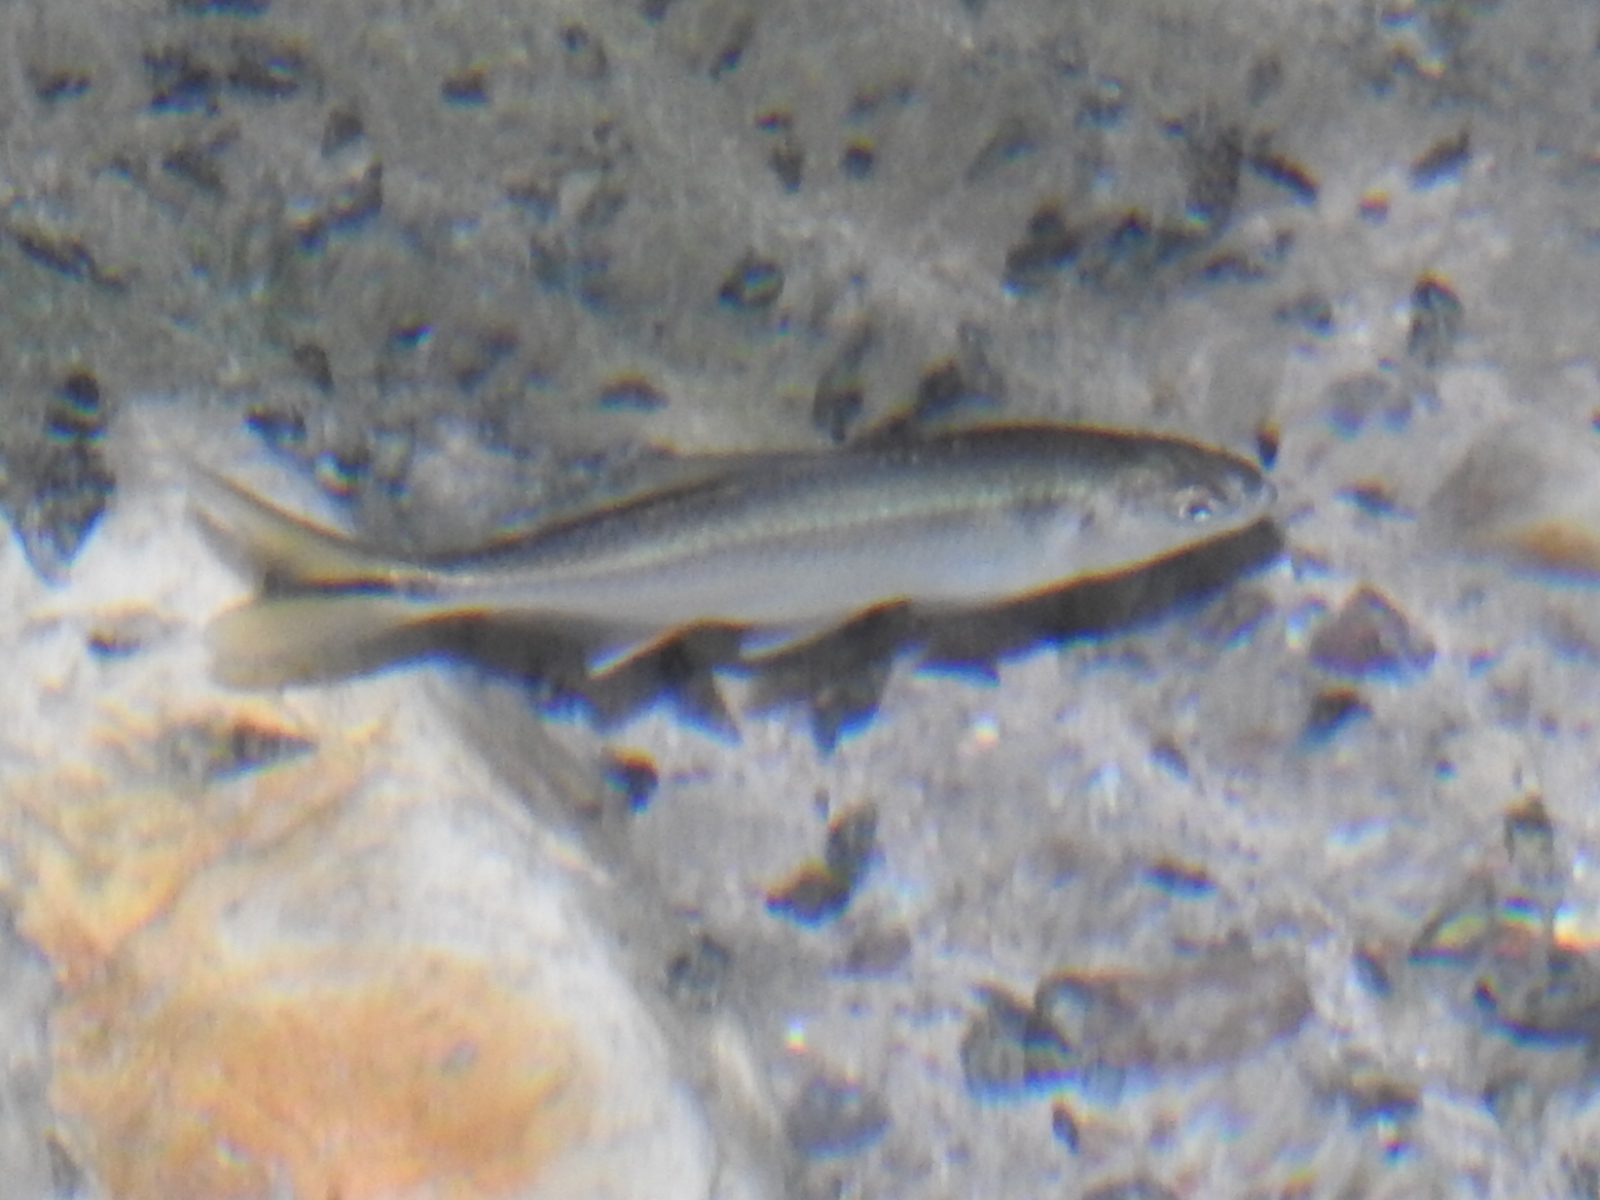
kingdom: Animalia
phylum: Chordata
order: Characiformes
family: Characidae
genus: Astyanax
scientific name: Astyanax mexicanus
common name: Mexican tetra
